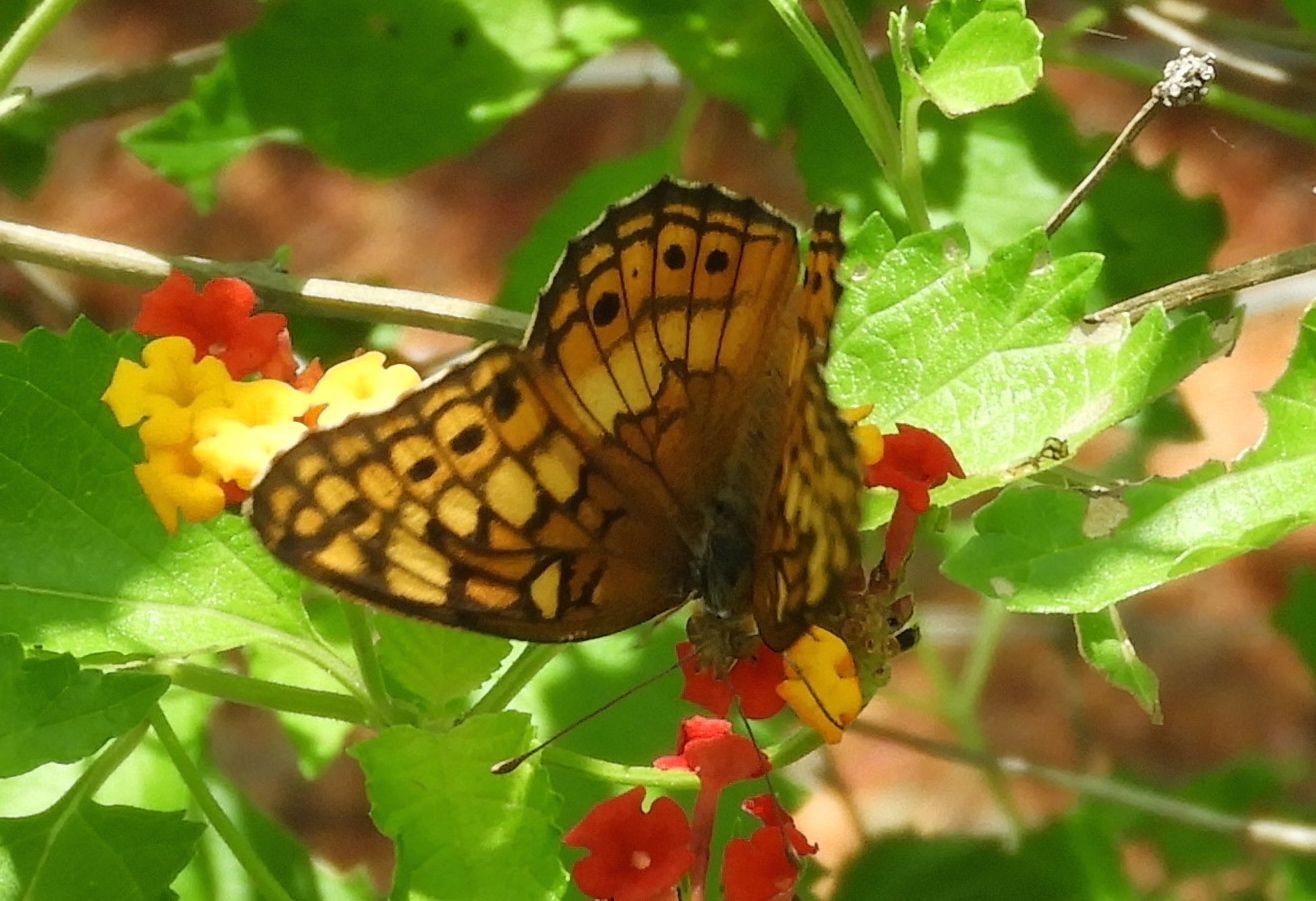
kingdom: Animalia
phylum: Arthropoda
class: Insecta
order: Lepidoptera
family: Nymphalidae
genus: Euptoieta
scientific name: Euptoieta claudia
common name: Variegated fritillary
